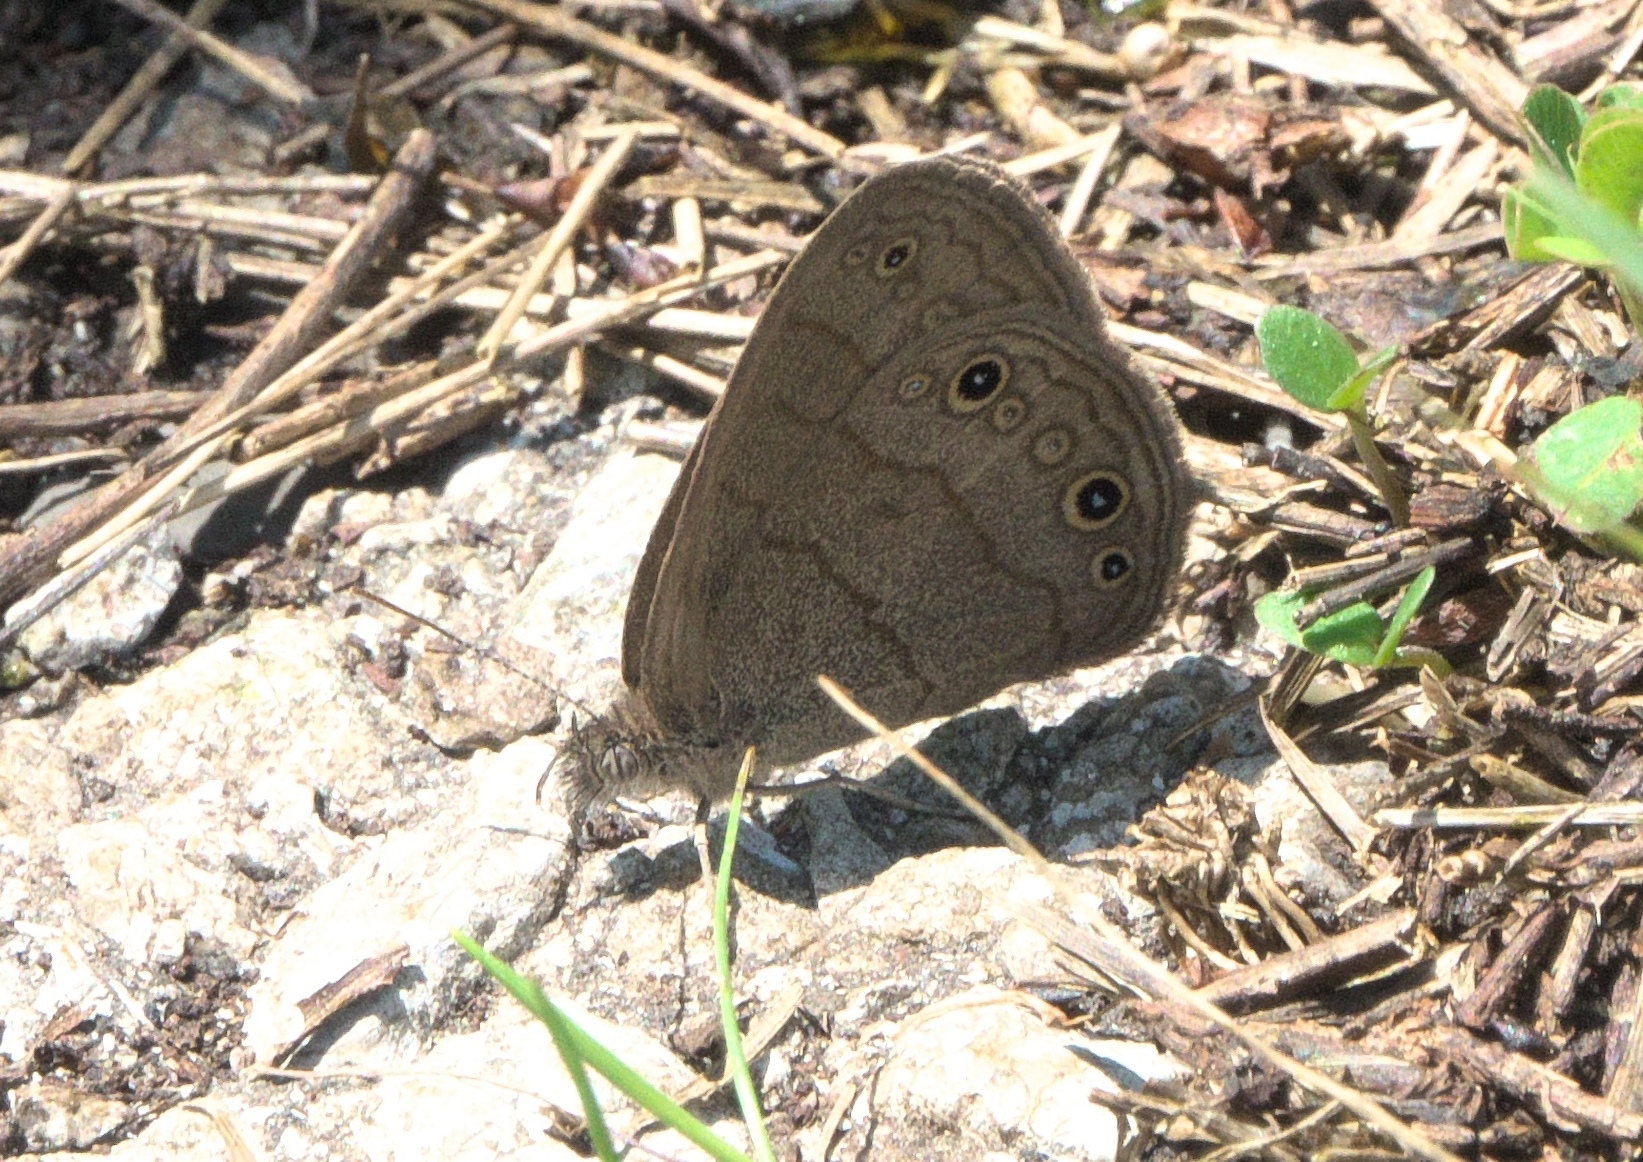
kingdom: Animalia
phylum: Arthropoda
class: Insecta
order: Lepidoptera
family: Nymphalidae
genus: Hermeuptychia
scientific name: Hermeuptychia hermes
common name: Hermes satyr
